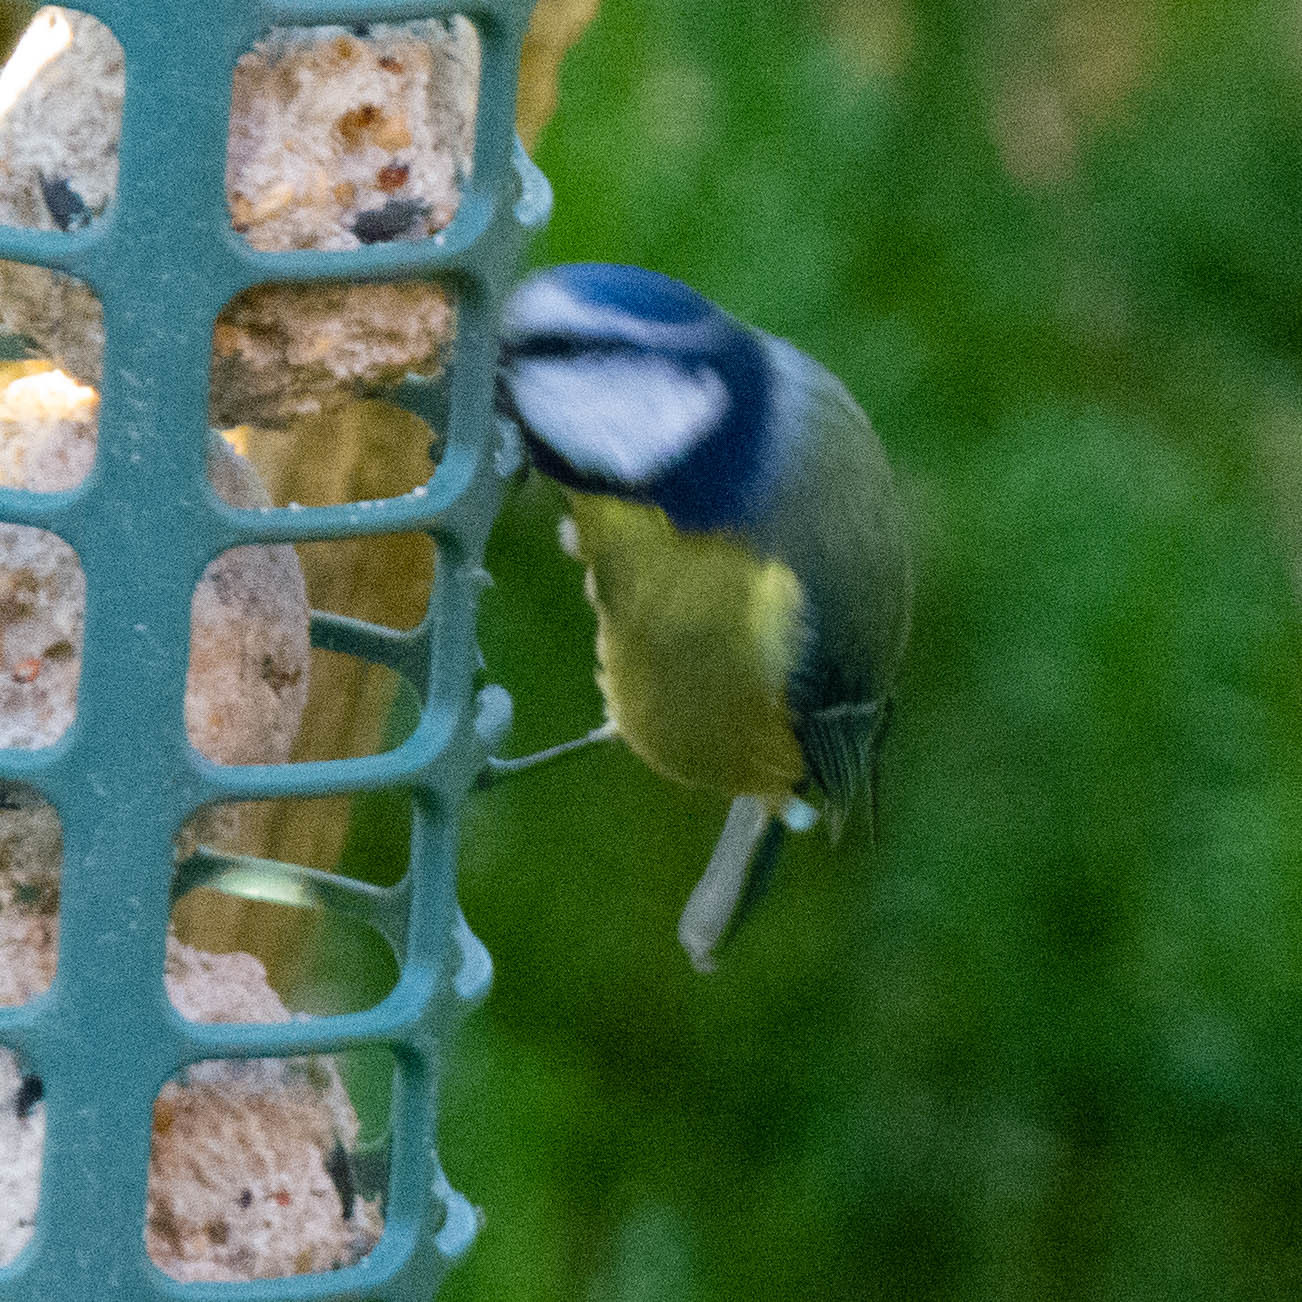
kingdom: Animalia
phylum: Chordata
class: Aves
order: Passeriformes
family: Paridae
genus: Cyanistes
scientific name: Cyanistes caeruleus
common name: Eurasian blue tit
